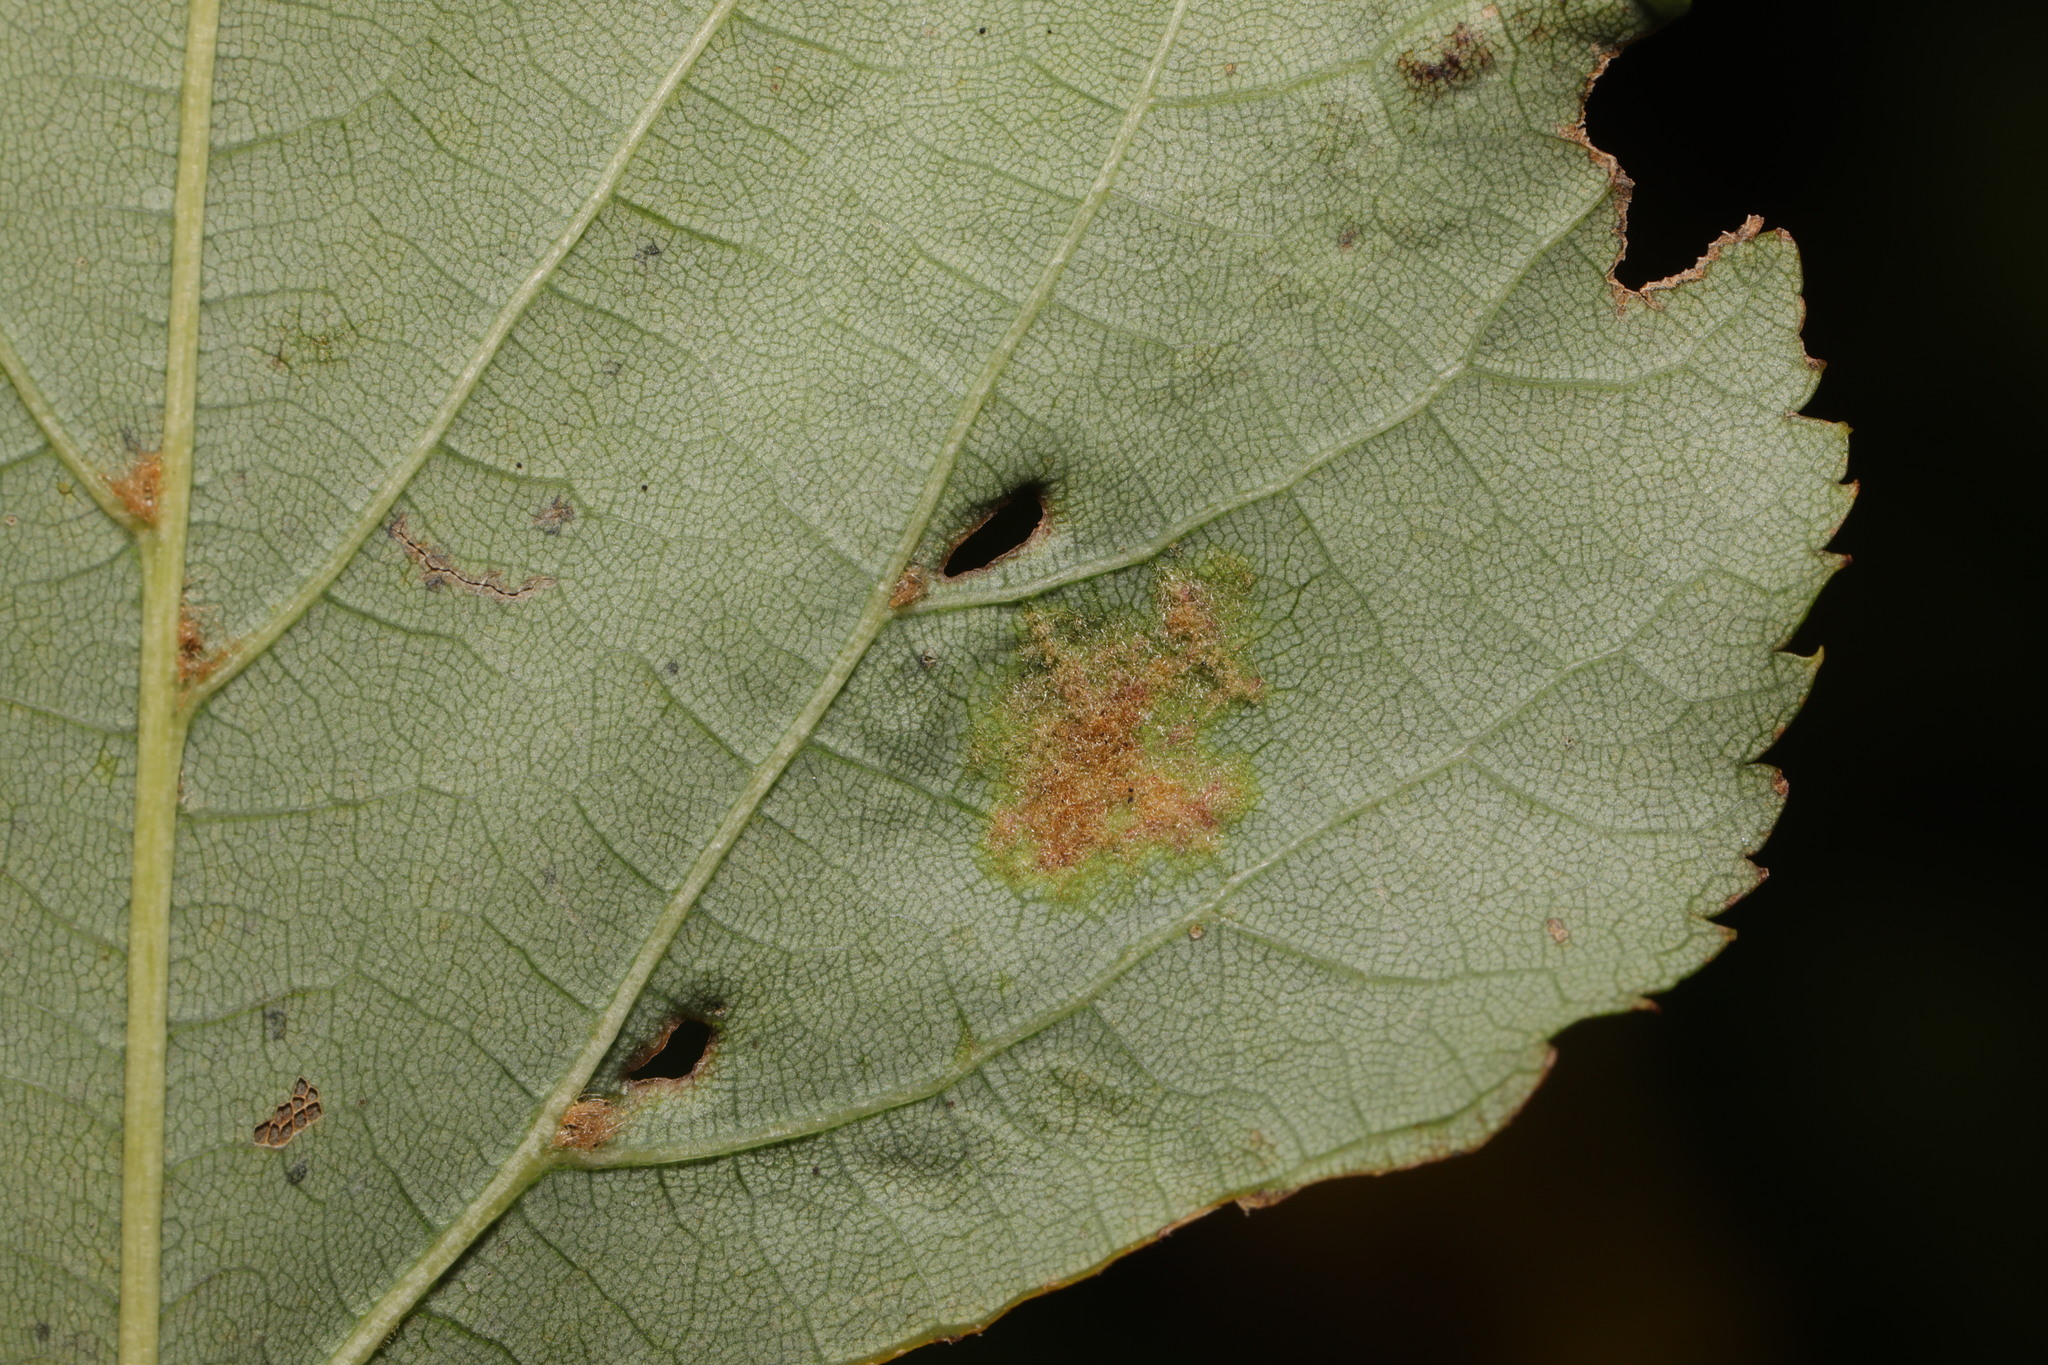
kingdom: Animalia
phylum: Arthropoda
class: Arachnida
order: Trombidiformes
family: Eriophyidae
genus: Eriophyes
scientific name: Eriophyes leiosoma
